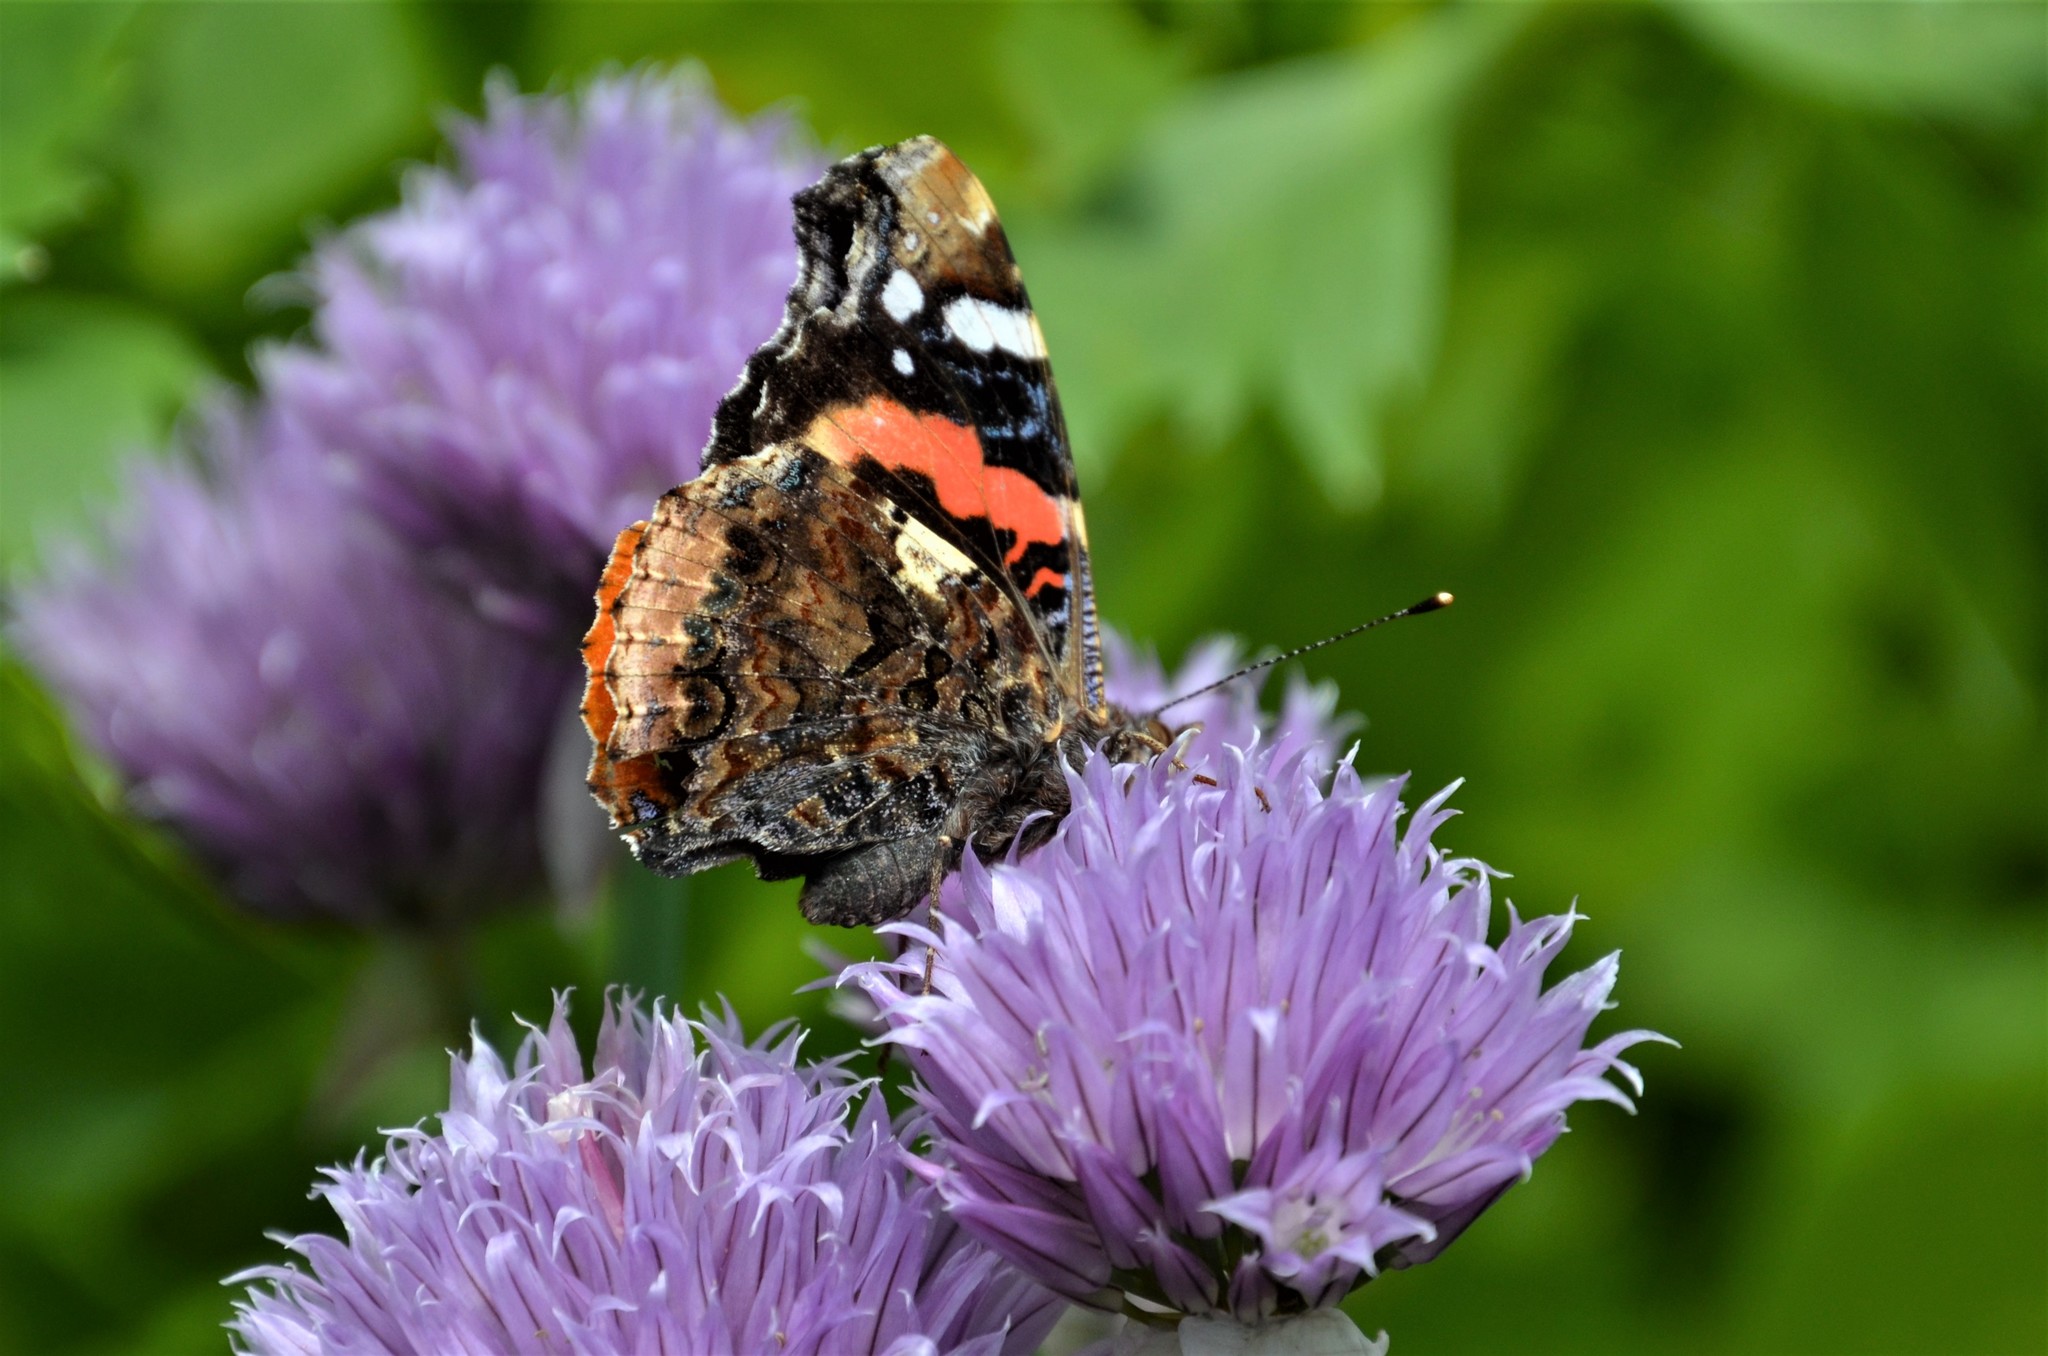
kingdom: Animalia
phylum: Arthropoda
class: Insecta
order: Lepidoptera
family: Nymphalidae
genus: Vanessa
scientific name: Vanessa atalanta
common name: Red admiral
